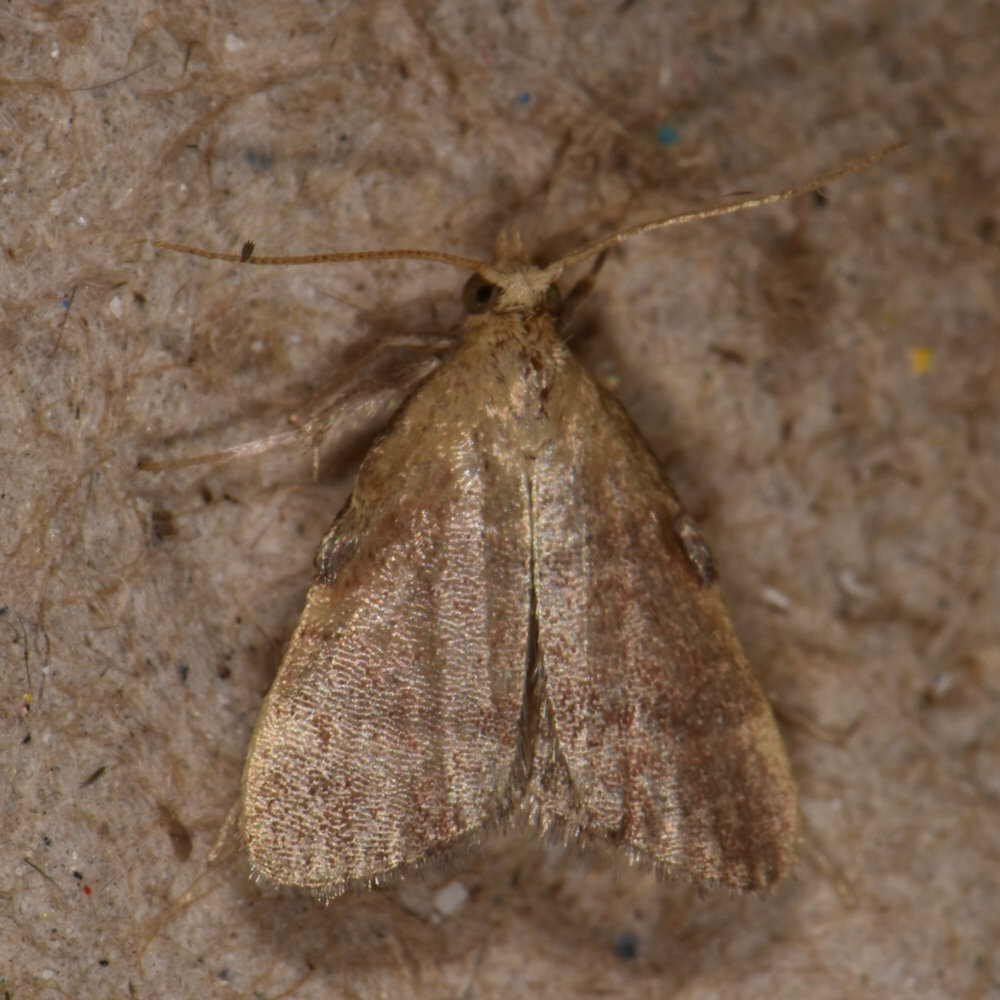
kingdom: Animalia
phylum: Arthropoda
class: Insecta
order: Lepidoptera
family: Pyralidae
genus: Condylolomia
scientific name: Condylolomia participialis
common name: Drab condylolomia moth
